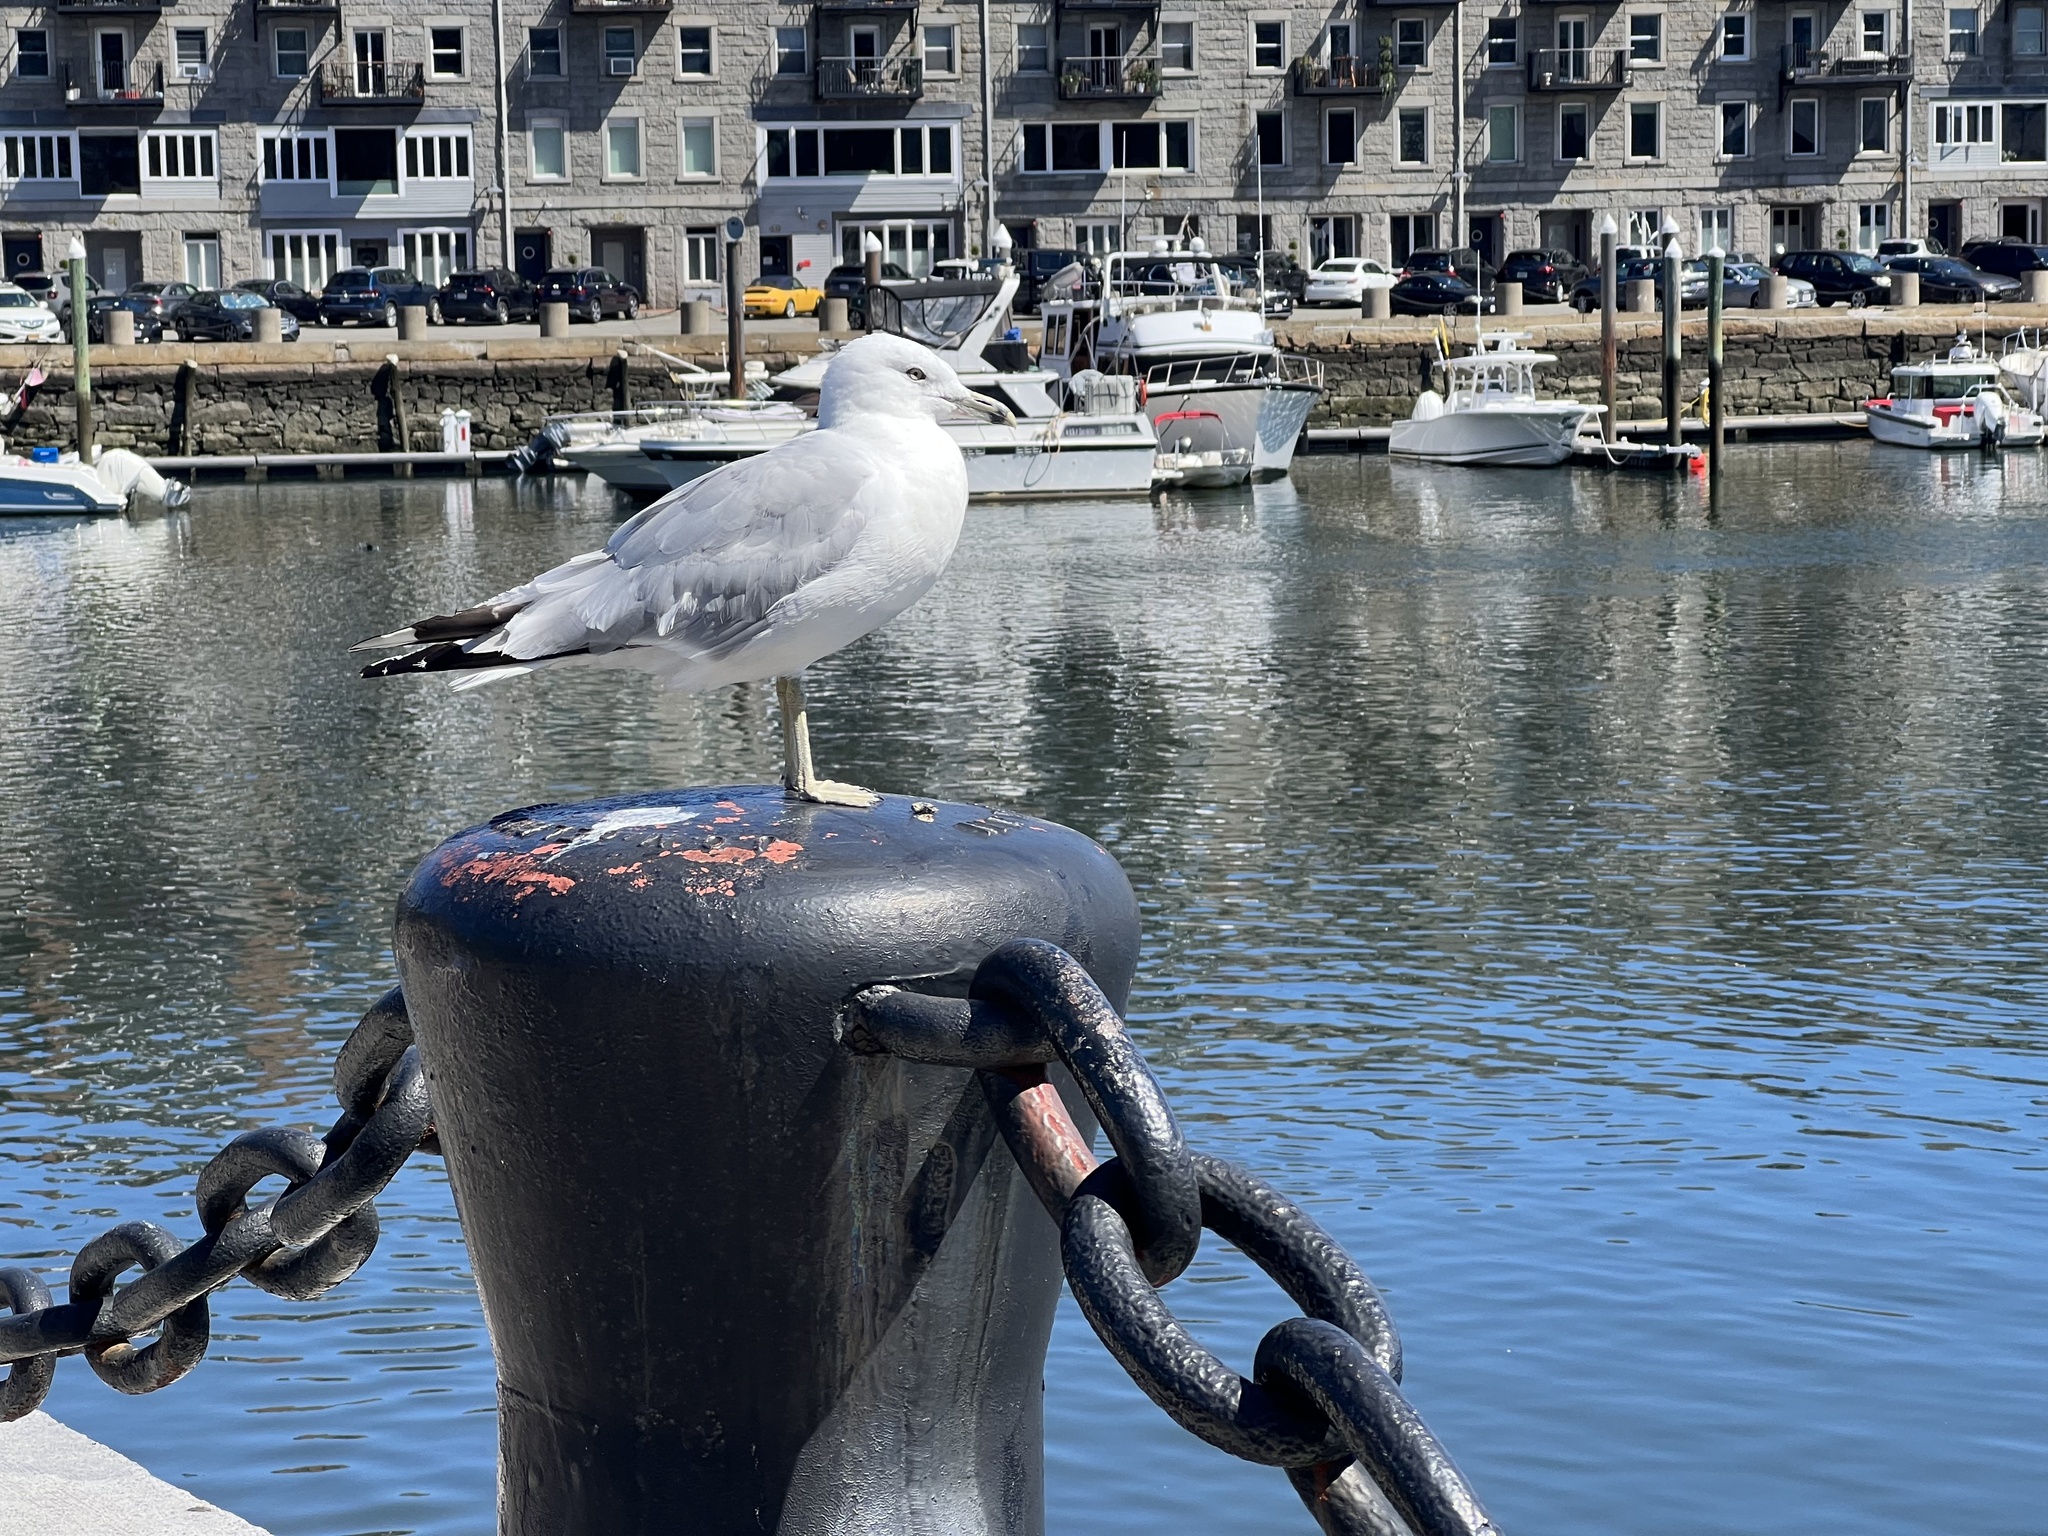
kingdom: Animalia
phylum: Chordata
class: Aves
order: Charadriiformes
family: Laridae
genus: Larus
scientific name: Larus delawarensis
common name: Ring-billed gull
